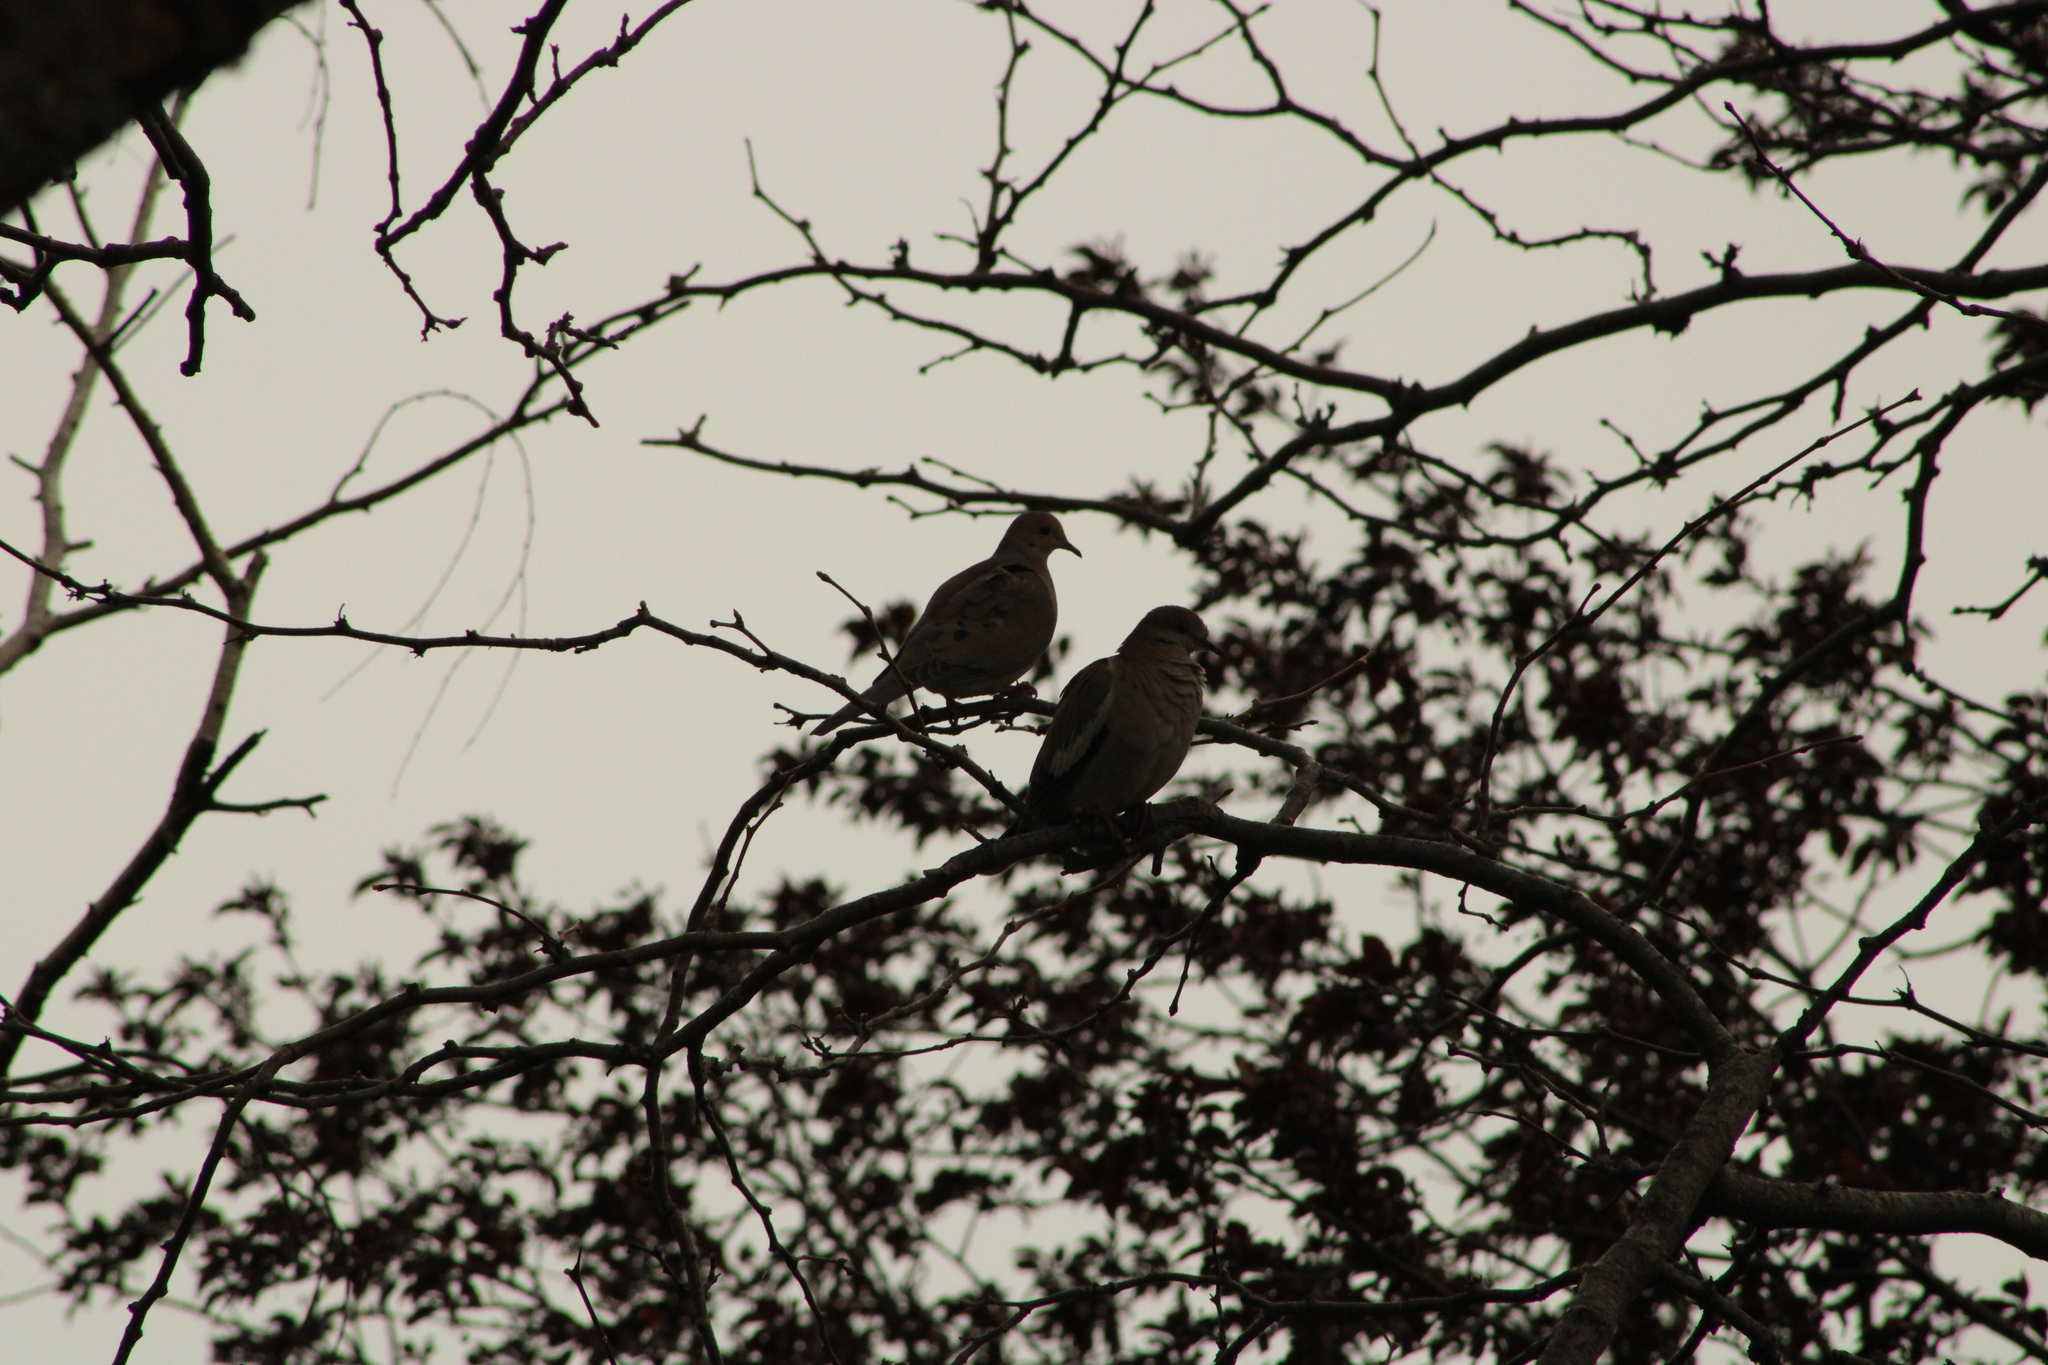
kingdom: Animalia
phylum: Chordata
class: Aves
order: Columbiformes
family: Columbidae
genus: Zenaida
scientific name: Zenaida asiatica
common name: White-winged dove
